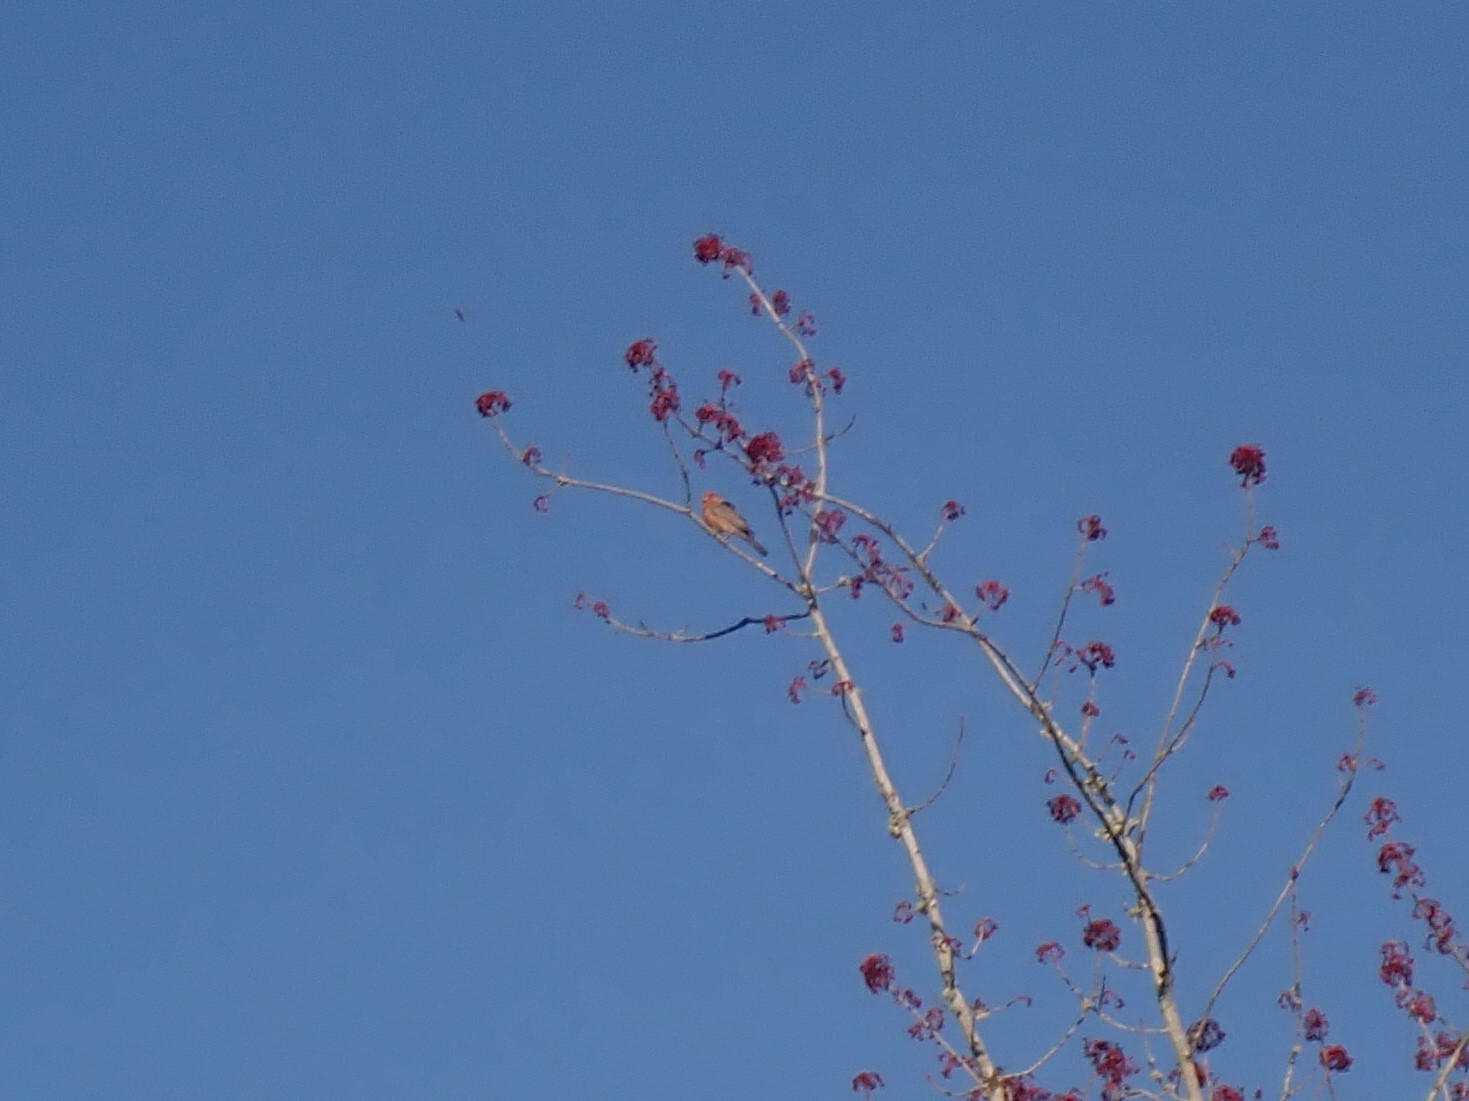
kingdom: Animalia
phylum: Chordata
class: Aves
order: Passeriformes
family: Fringillidae
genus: Haemorhous
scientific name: Haemorhous mexicanus
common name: House finch
